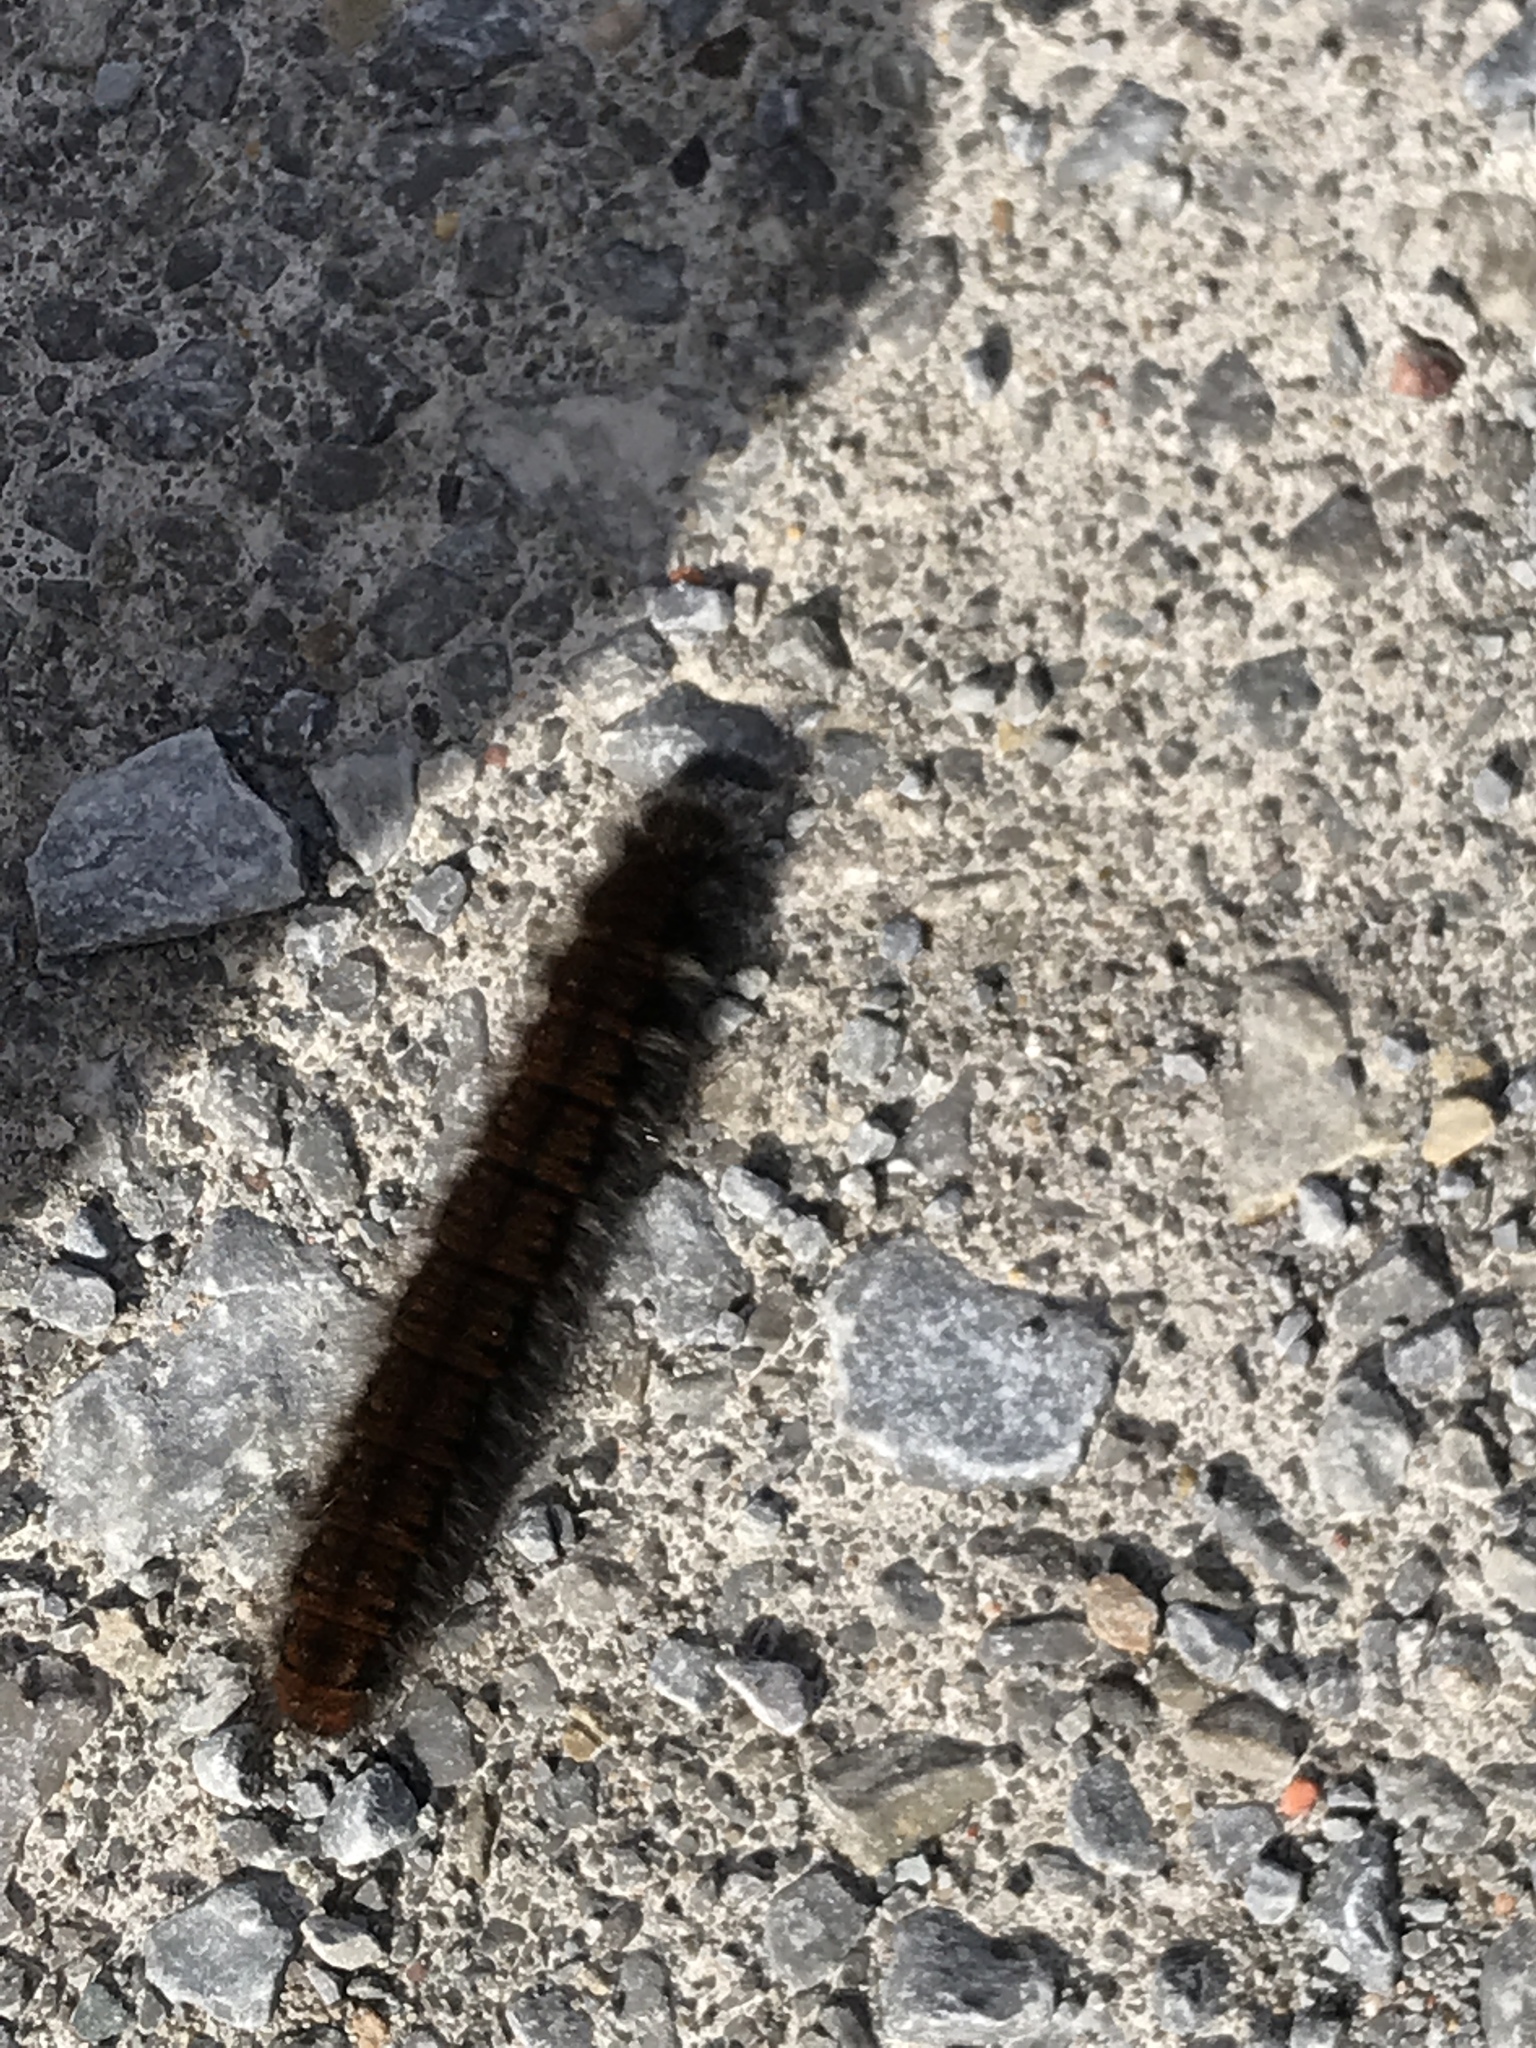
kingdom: Animalia
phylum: Arthropoda
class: Insecta
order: Lepidoptera
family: Lasiocampidae
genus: Macrothylacia
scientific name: Macrothylacia rubi
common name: Fox moth
